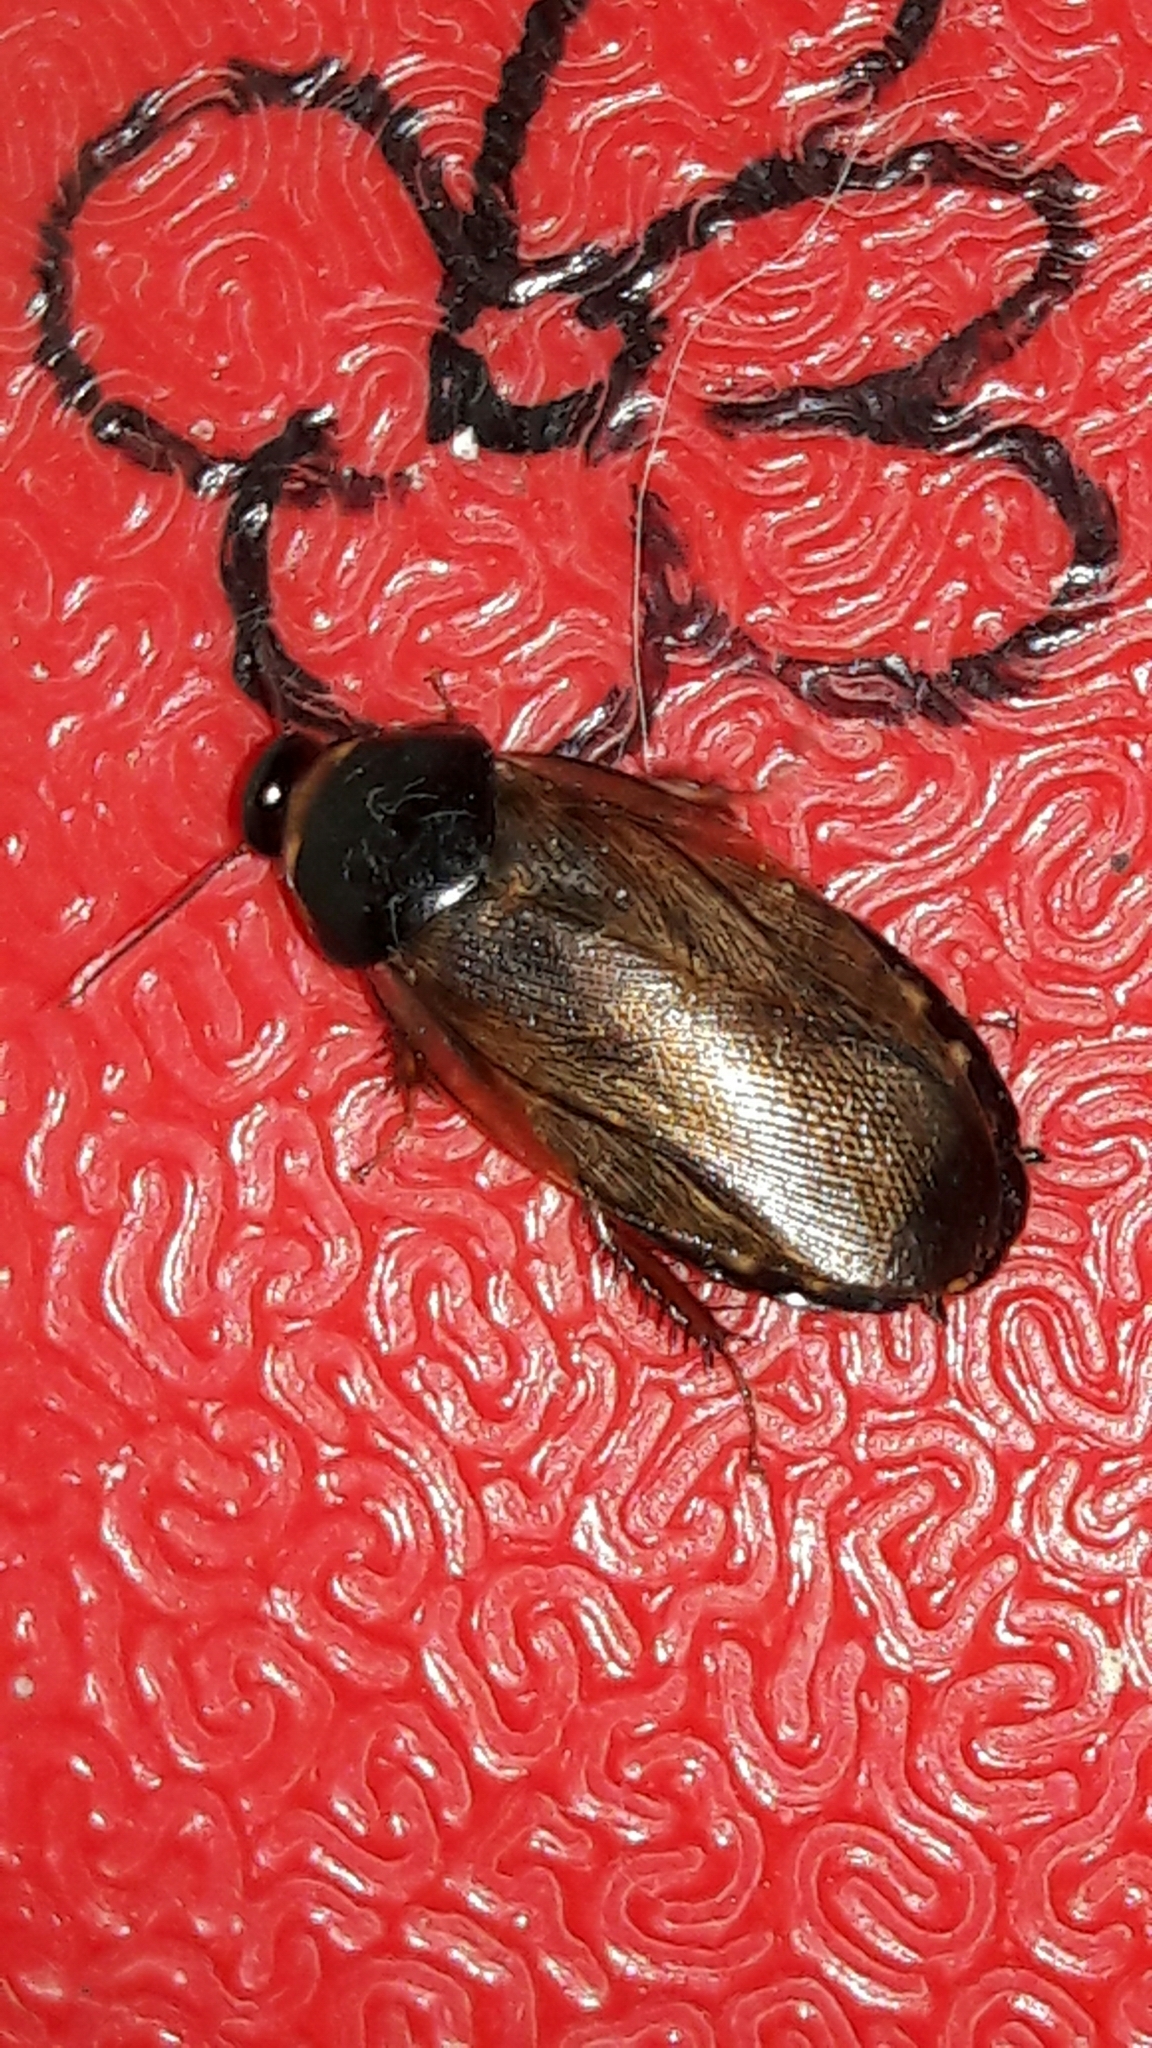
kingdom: Animalia
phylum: Arthropoda
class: Insecta
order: Blattodea
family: Blaberidae
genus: Pycnoscelus
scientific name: Pycnoscelus surinamensis
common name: Surinam cockroach
